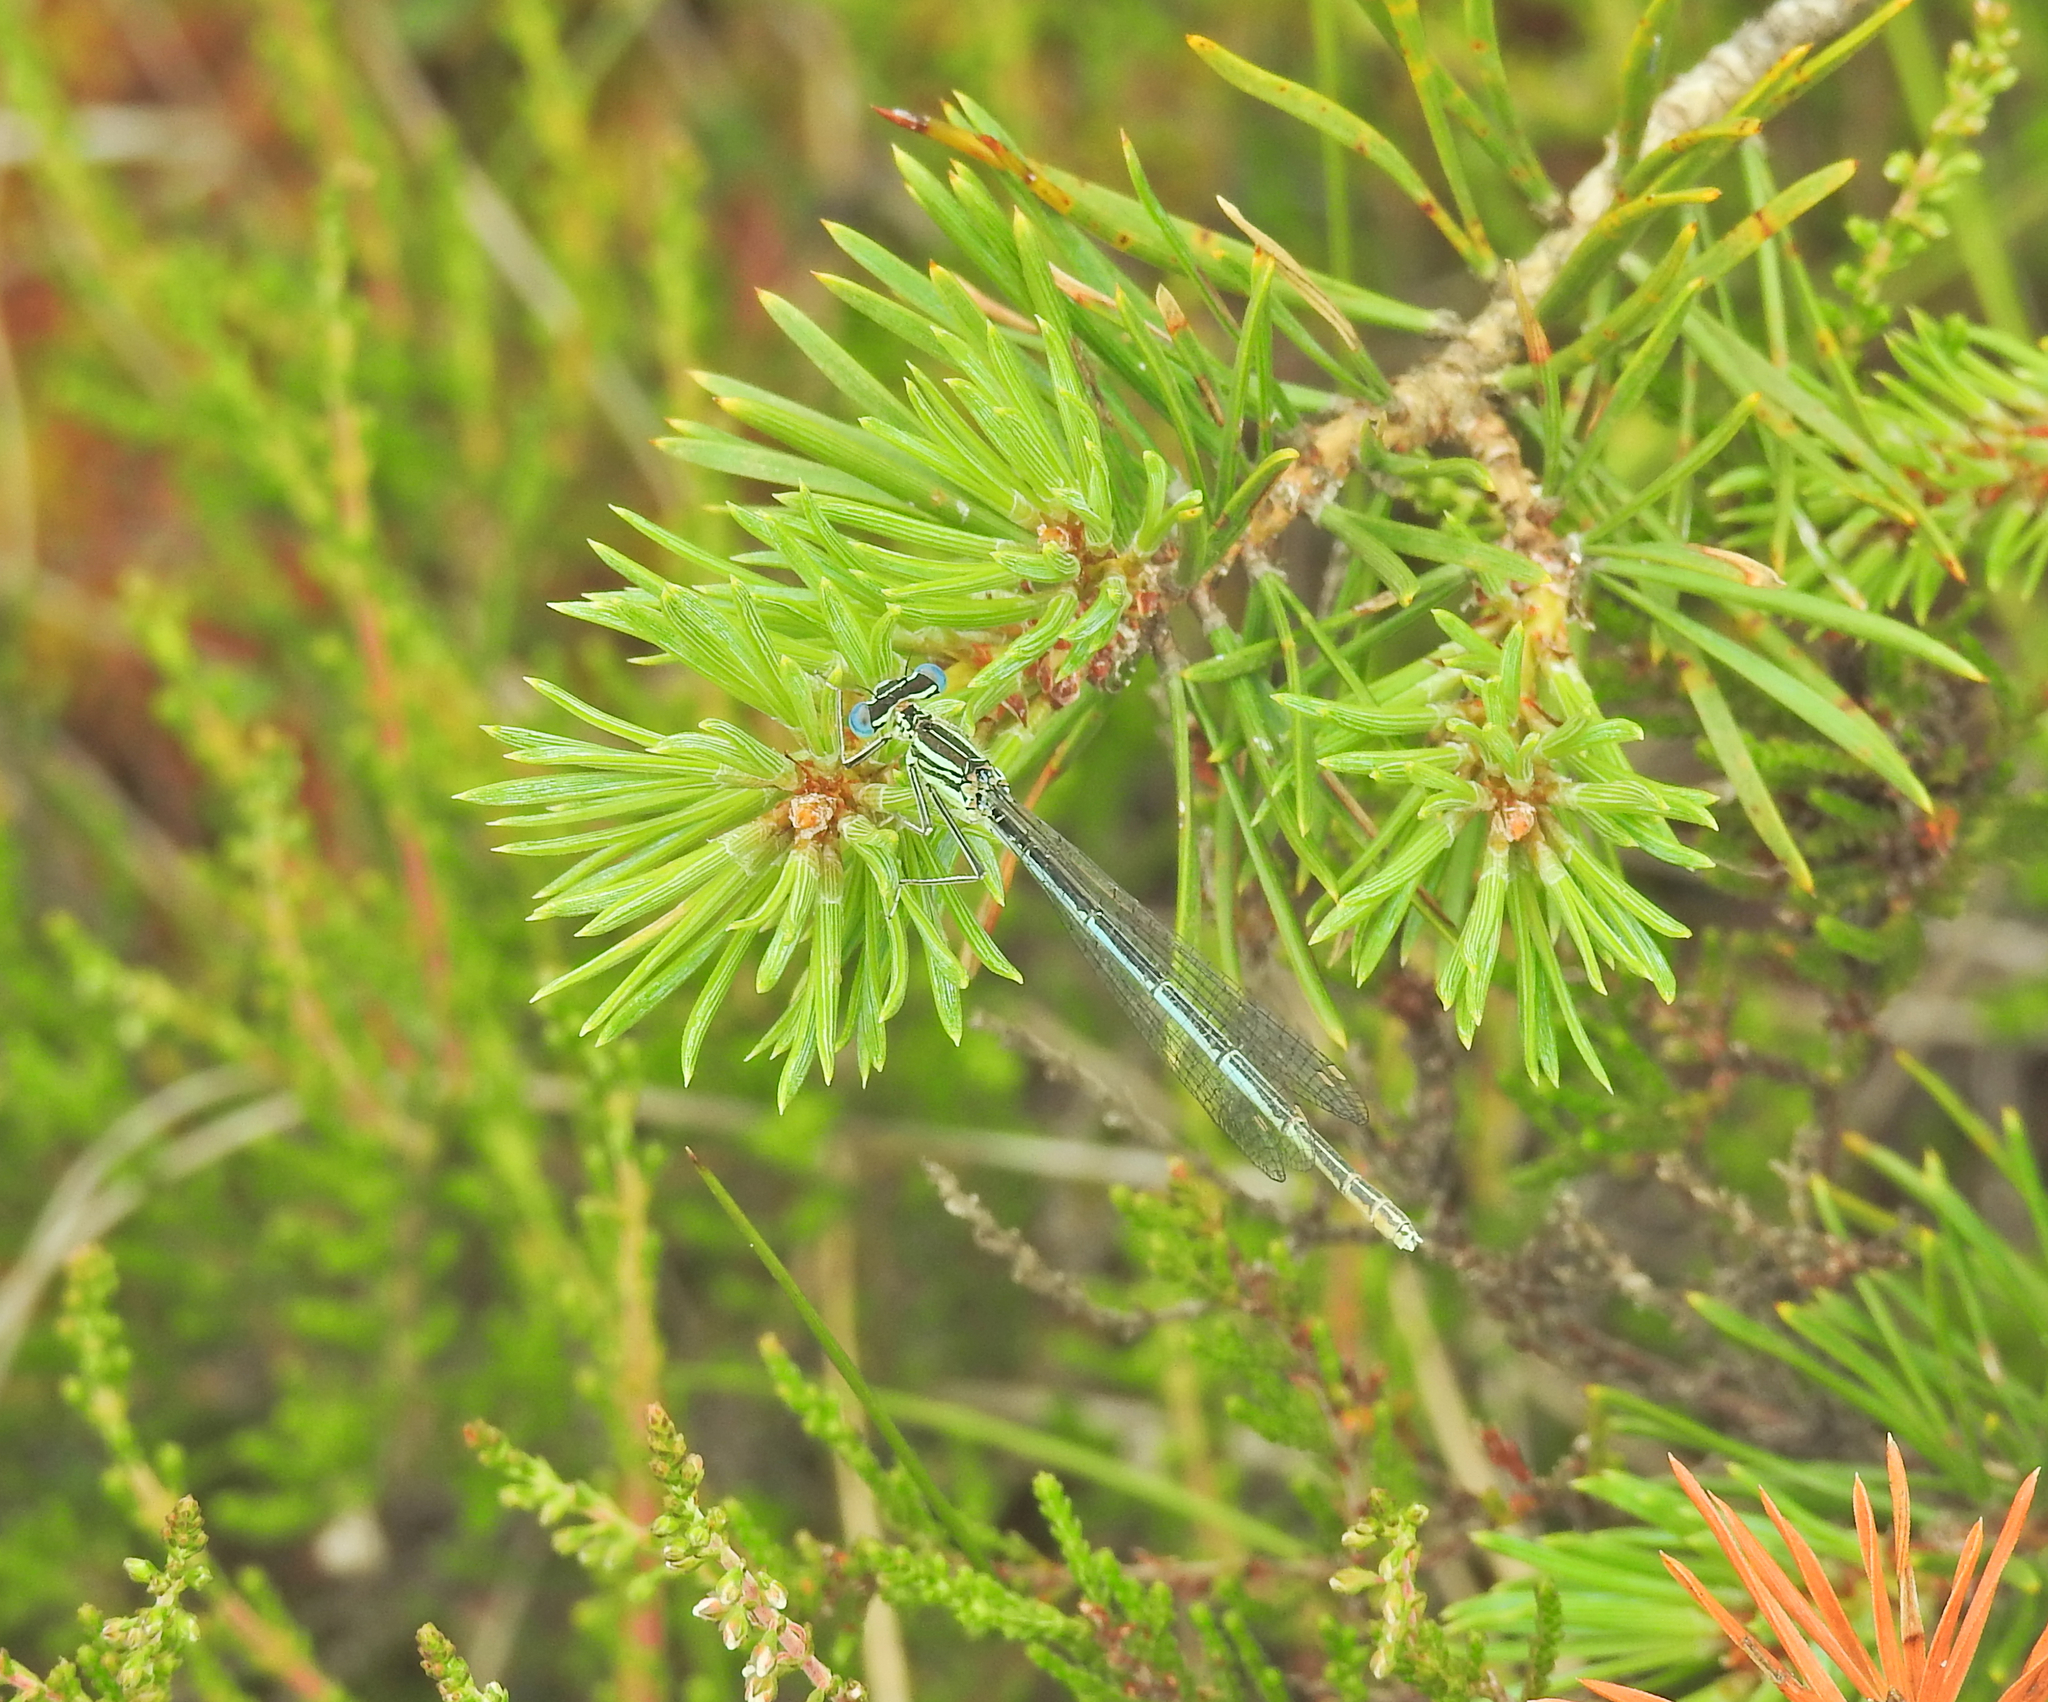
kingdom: Animalia
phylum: Arthropoda
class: Insecta
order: Odonata
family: Platycnemididae
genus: Platycnemis
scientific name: Platycnemis pennipes
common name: White-legged damselfly
